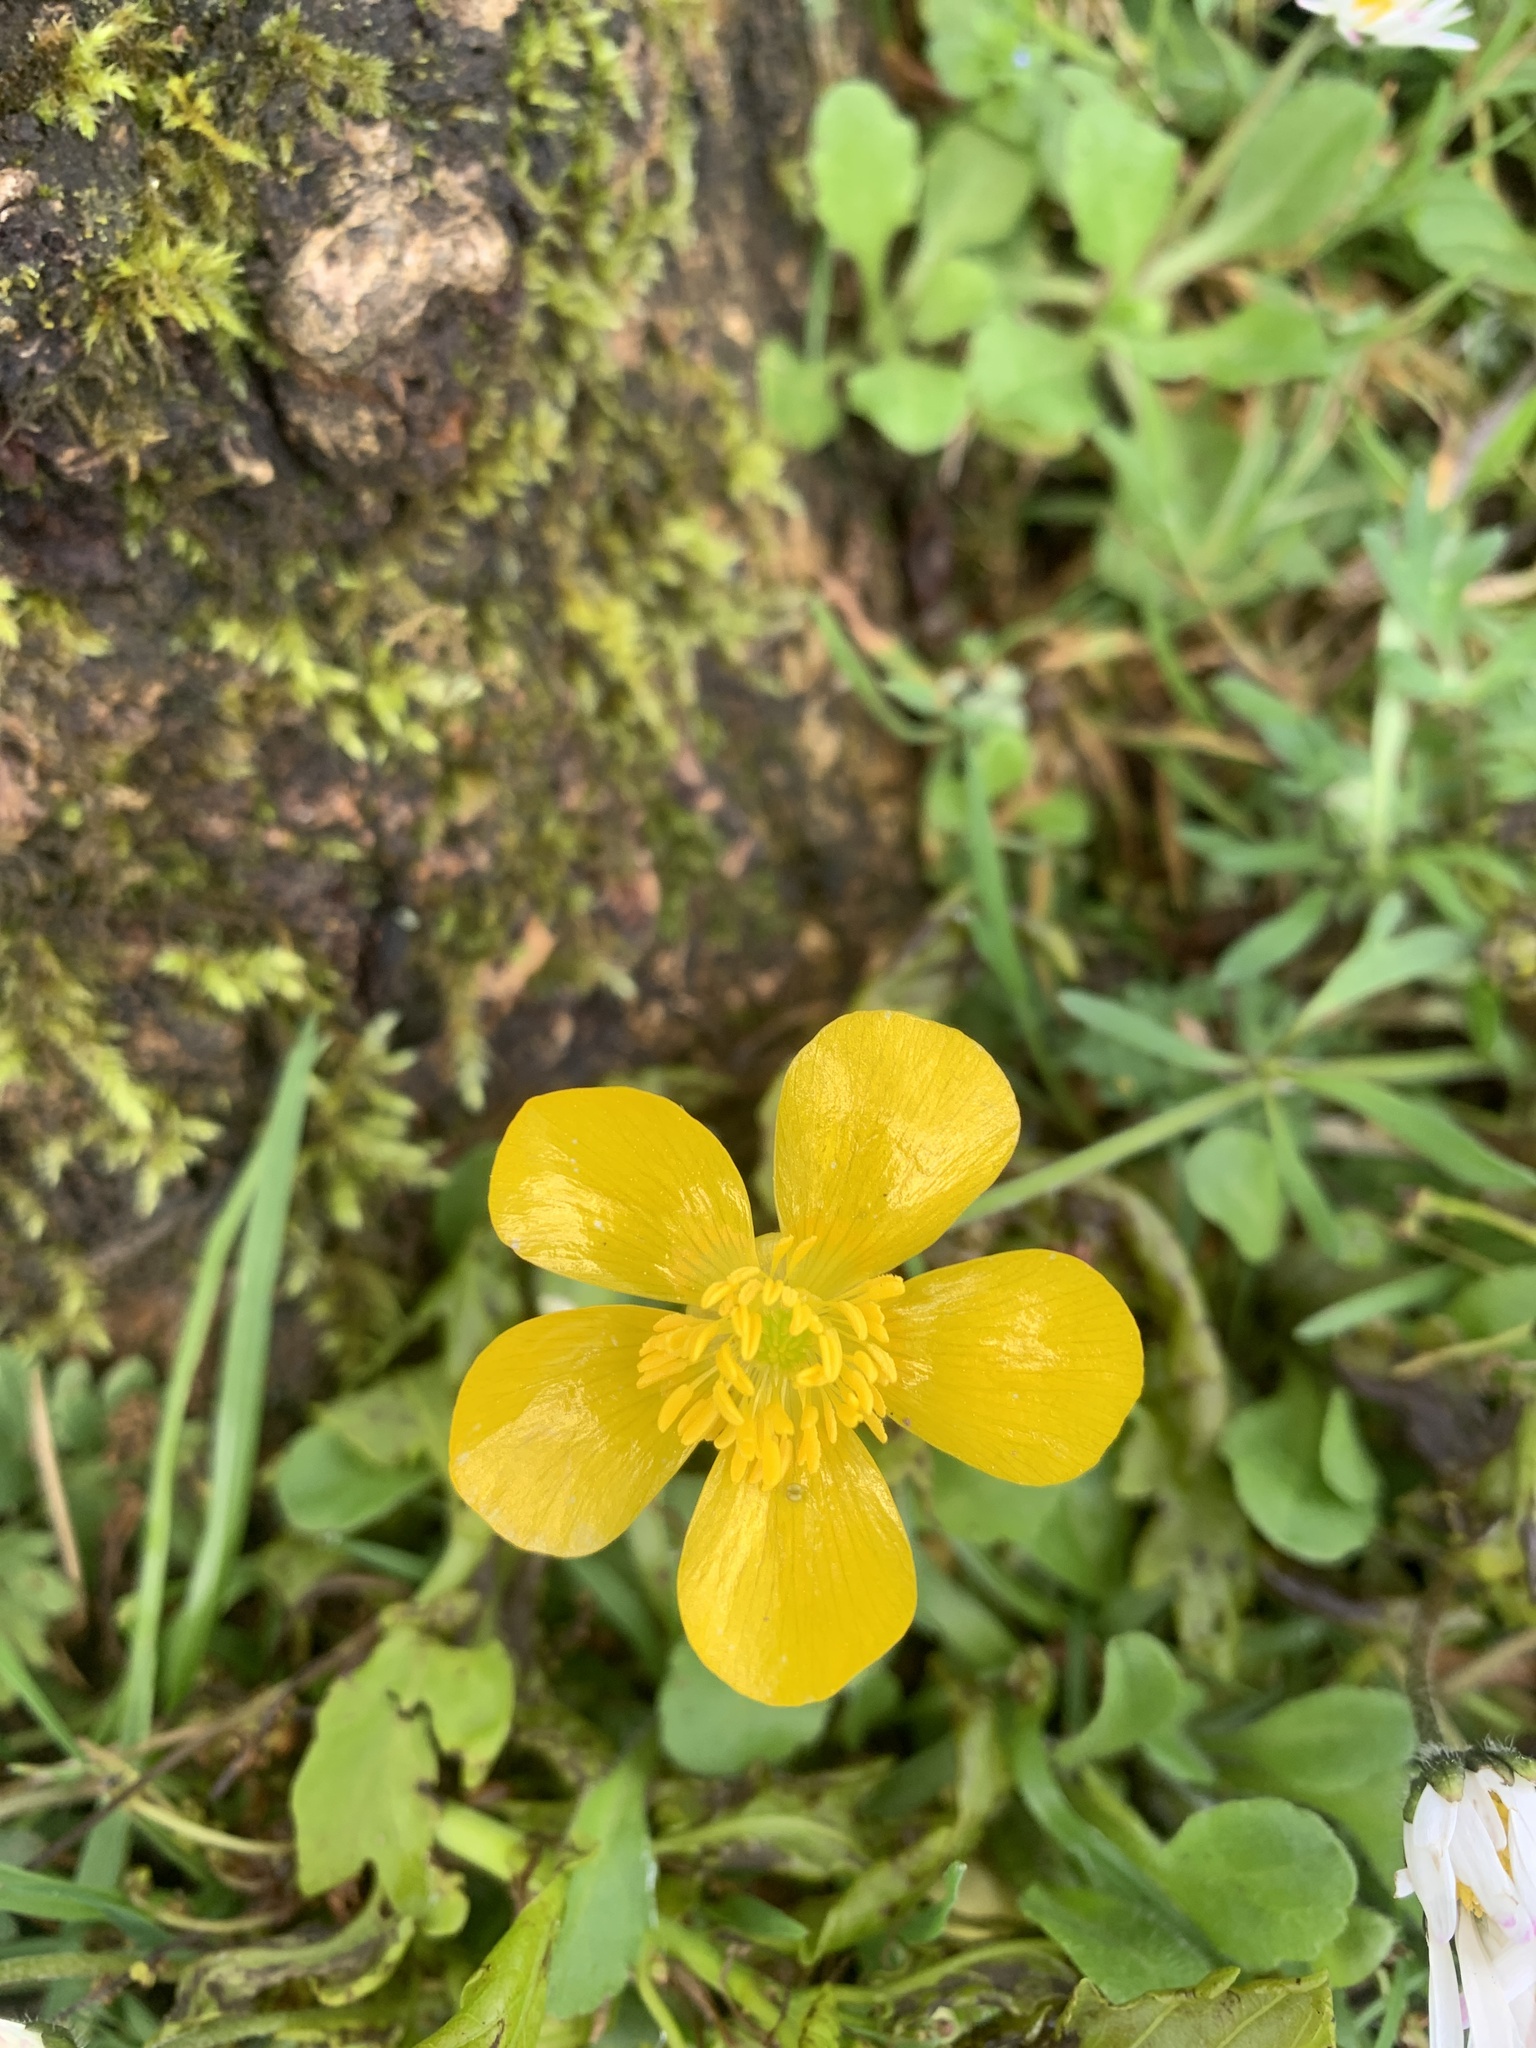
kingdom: Plantae
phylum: Tracheophyta
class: Magnoliopsida
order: Ranunculales
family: Ranunculaceae
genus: Ranunculus
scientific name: Ranunculus repens
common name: Creeping buttercup
